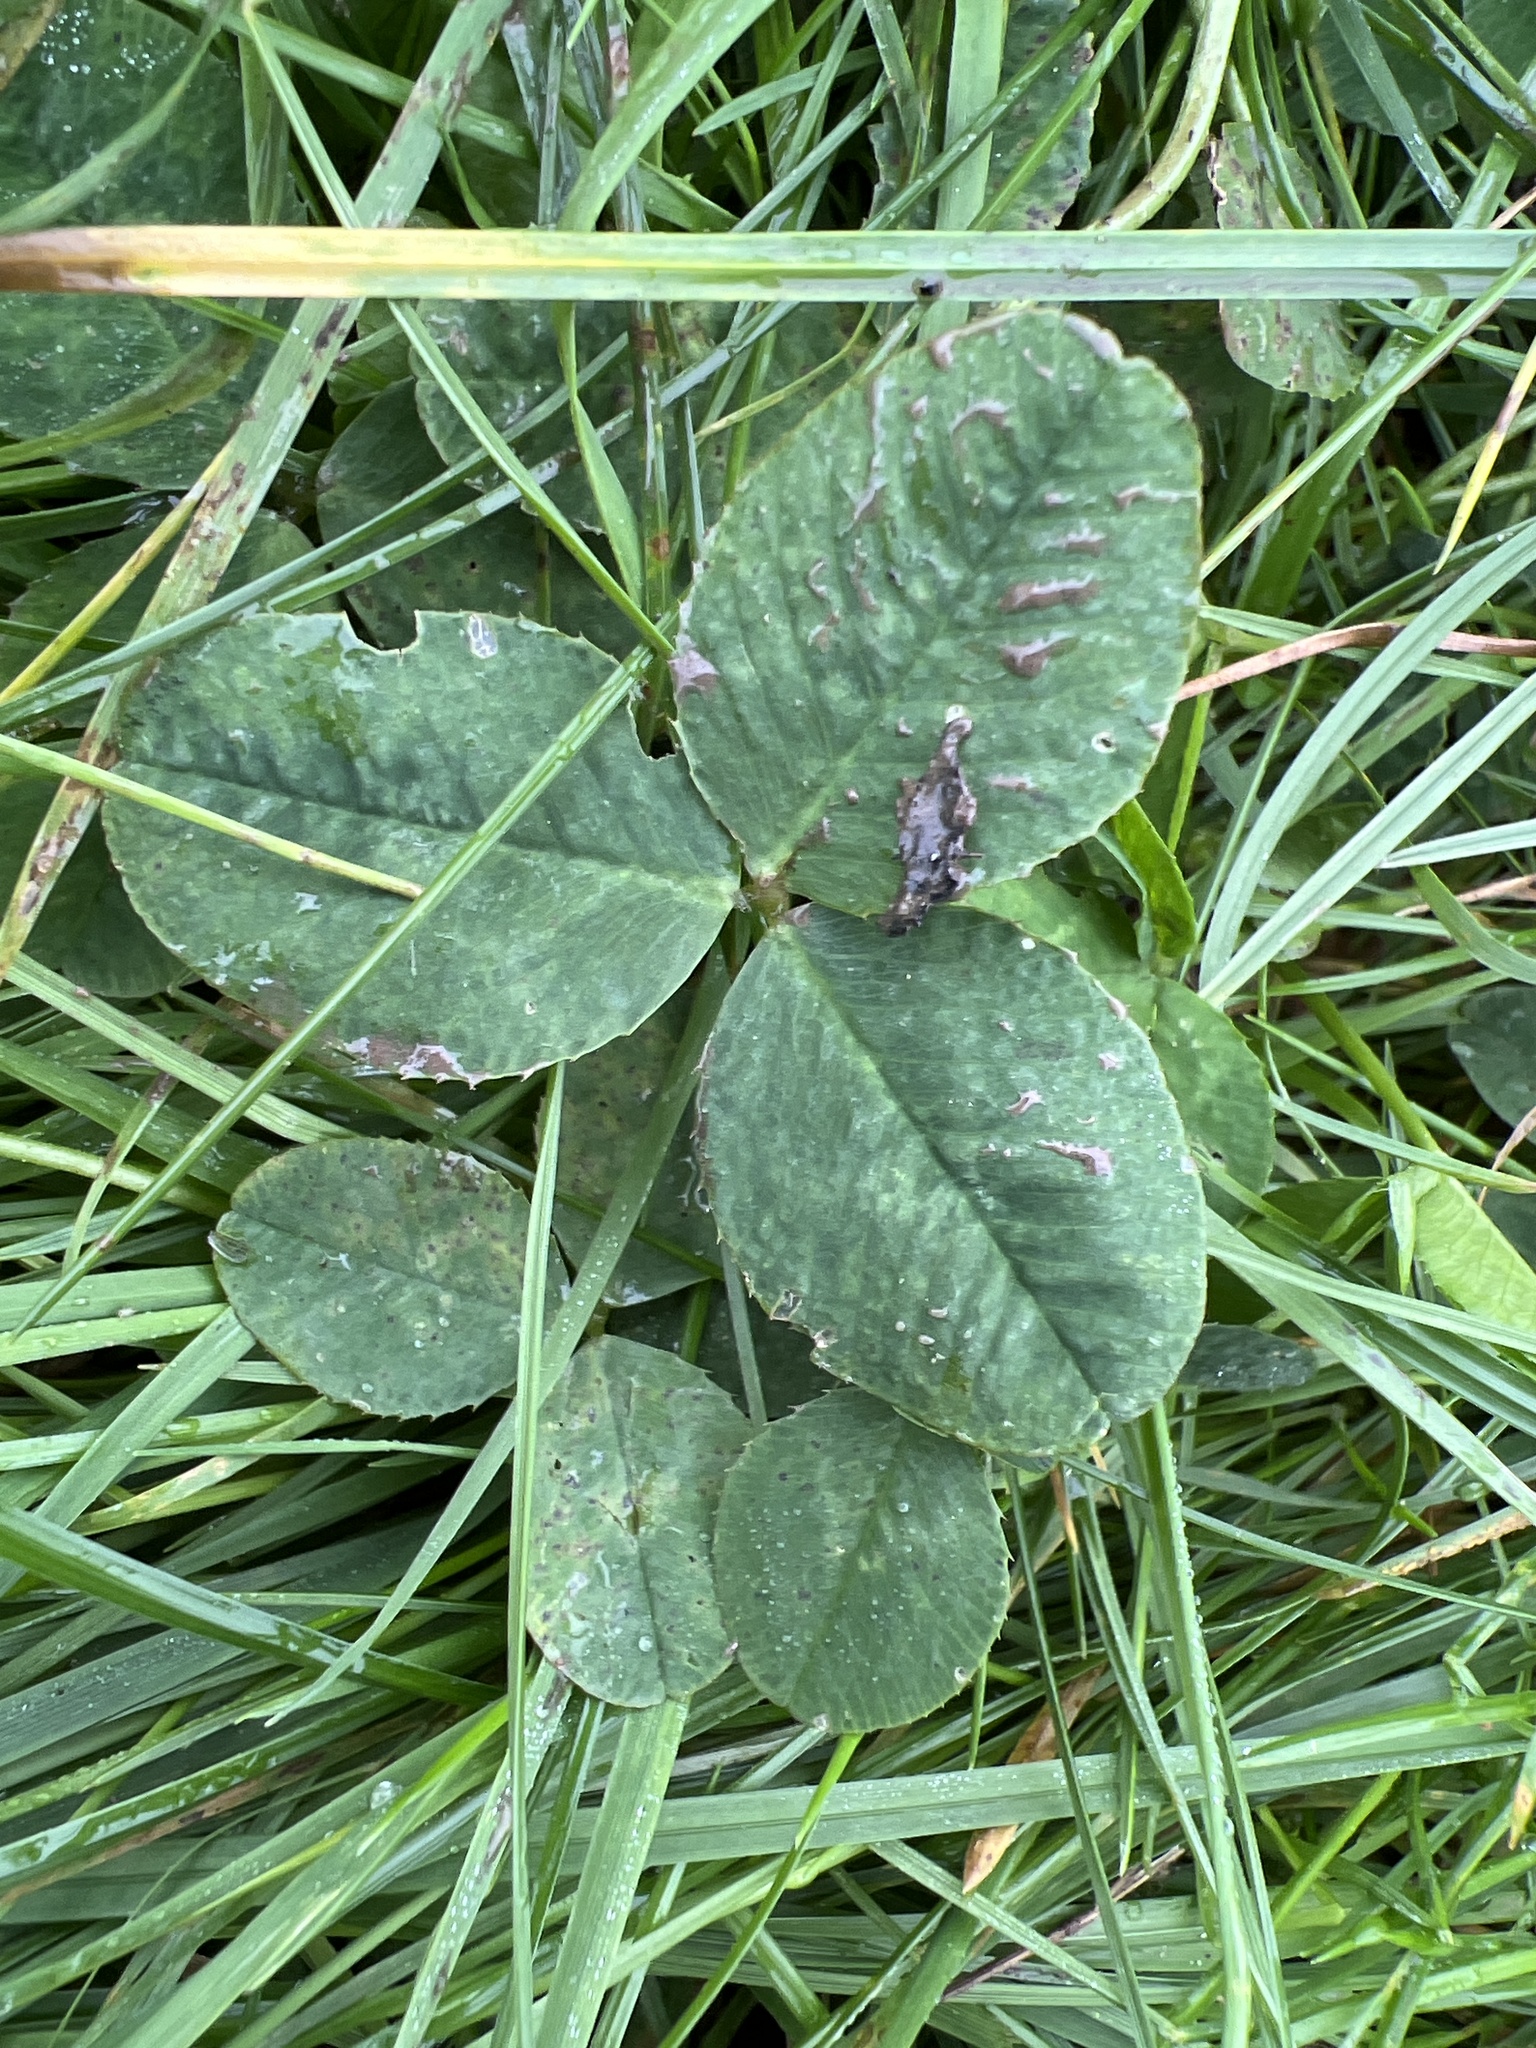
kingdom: Plantae
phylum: Tracheophyta
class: Magnoliopsida
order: Fabales
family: Fabaceae
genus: Trifolium
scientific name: Trifolium repens
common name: White clover
